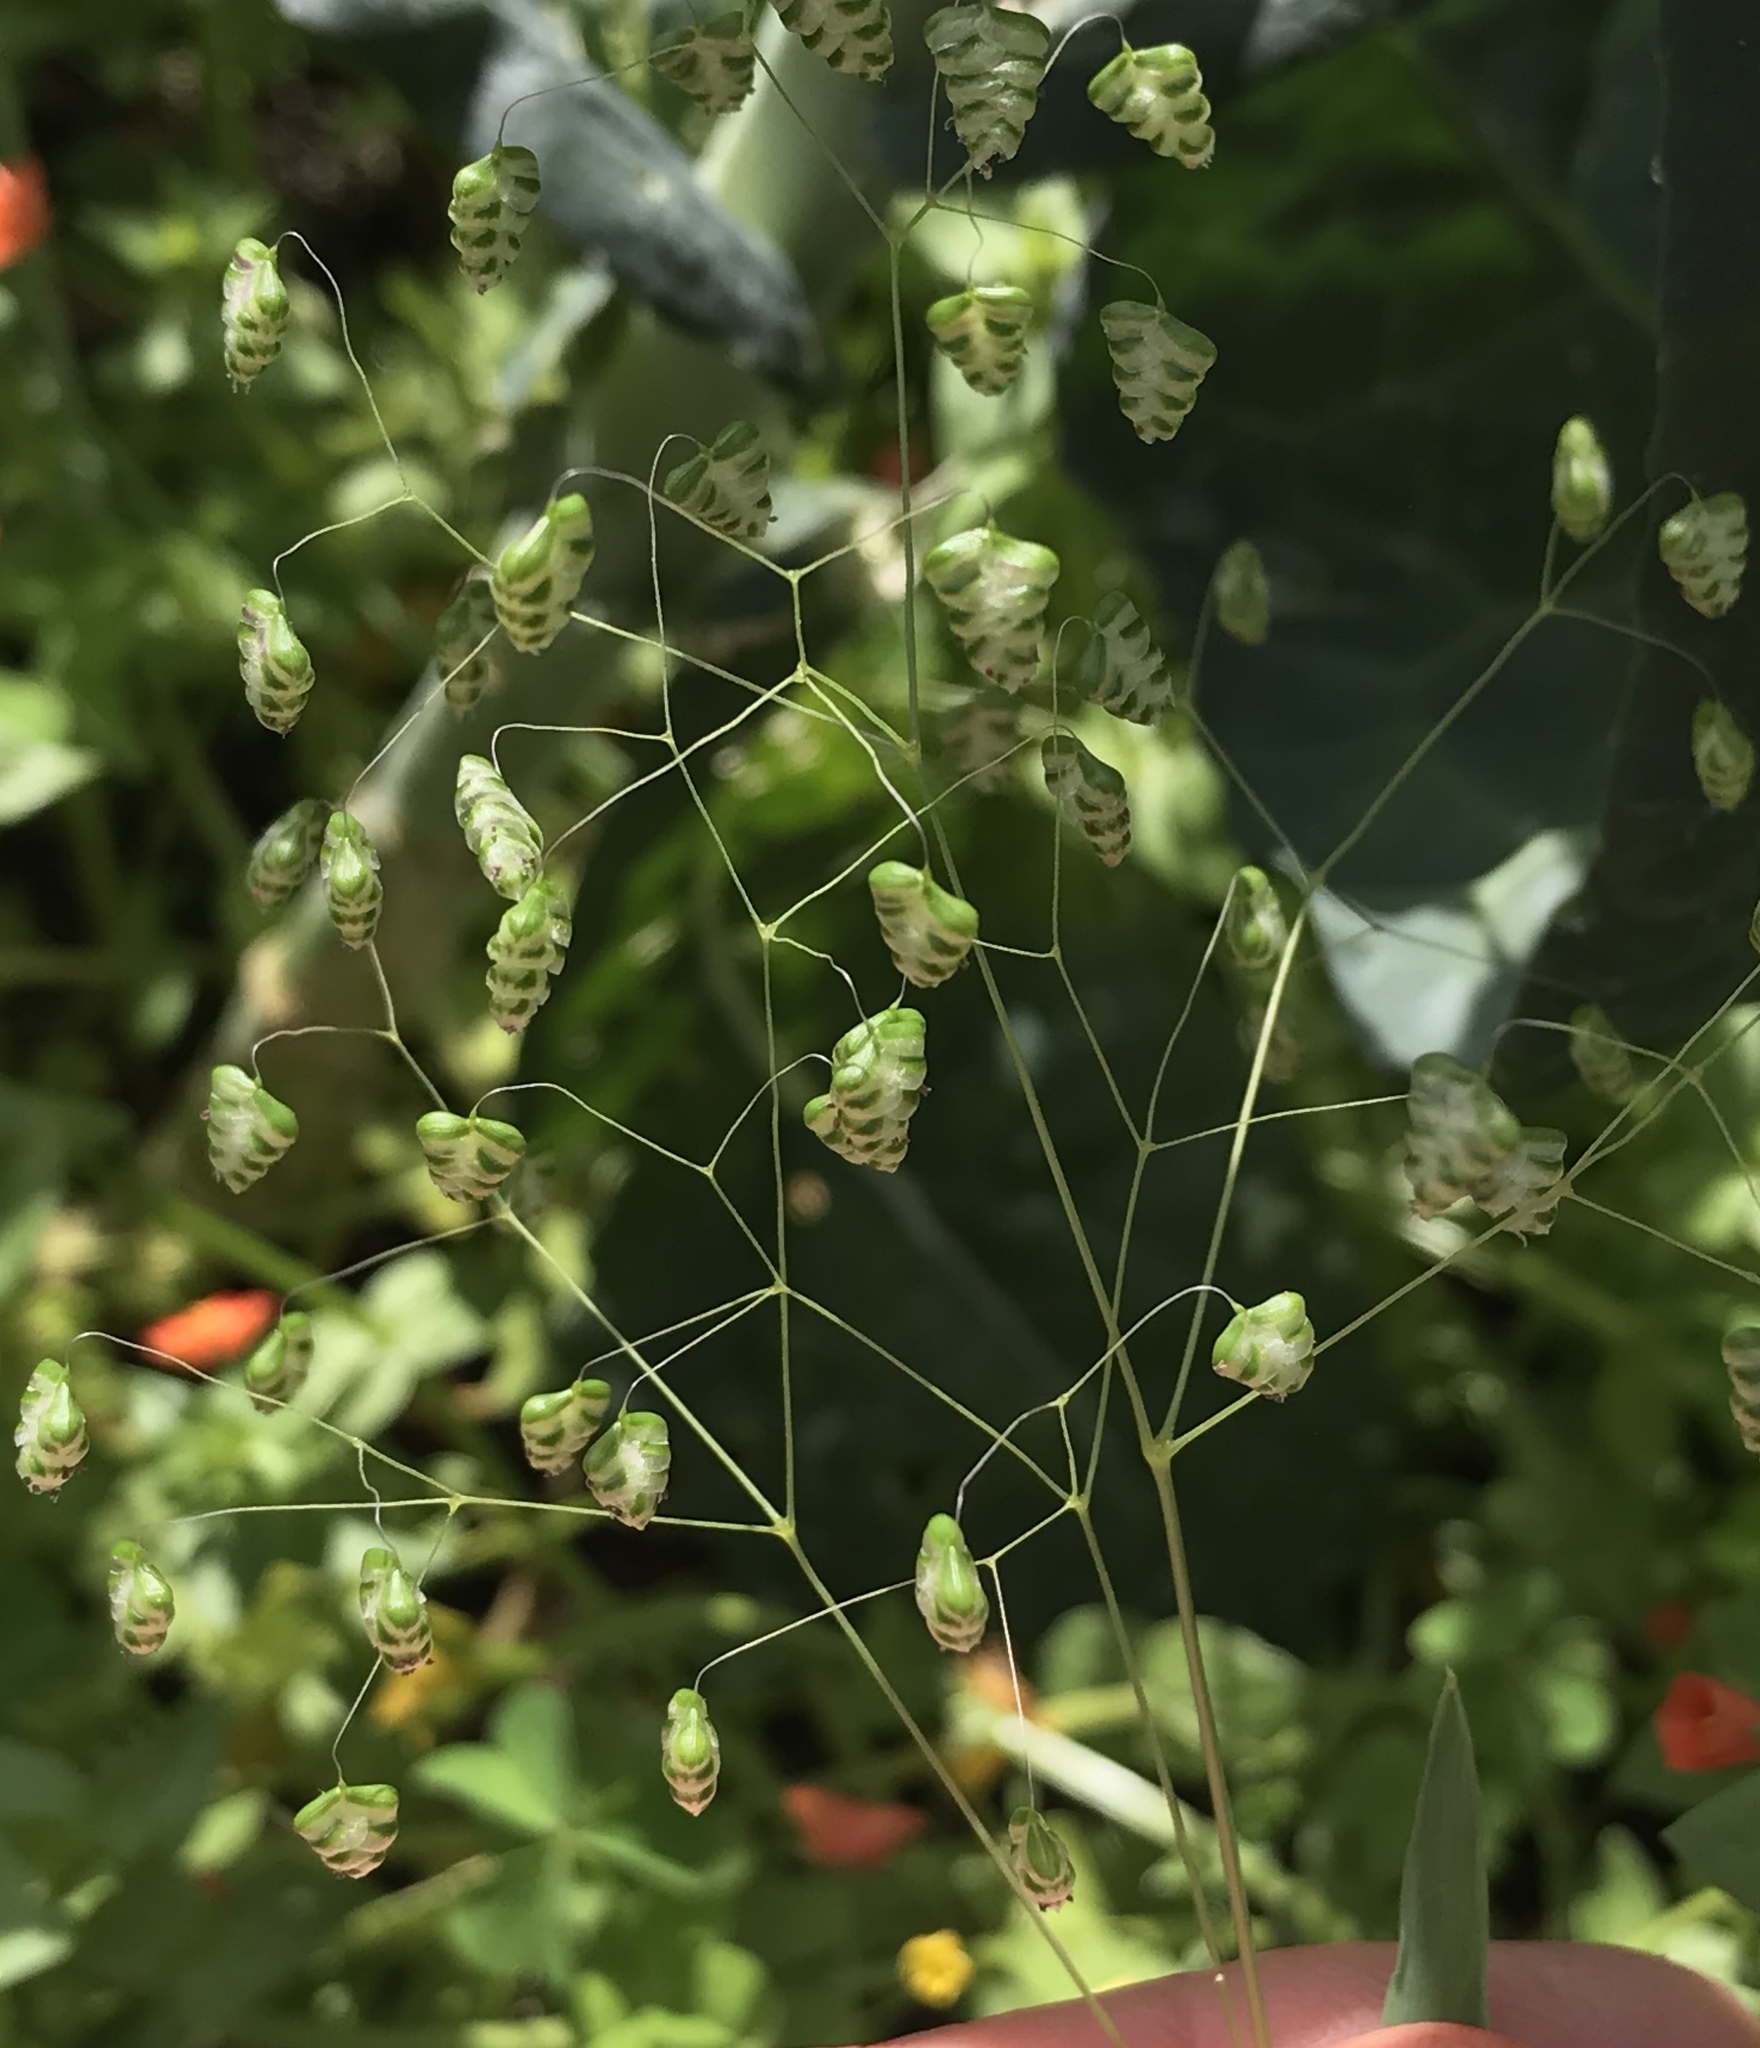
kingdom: Plantae
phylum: Tracheophyta
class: Liliopsida
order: Poales
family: Poaceae
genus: Briza
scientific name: Briza minor
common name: Lesser quaking-grass
